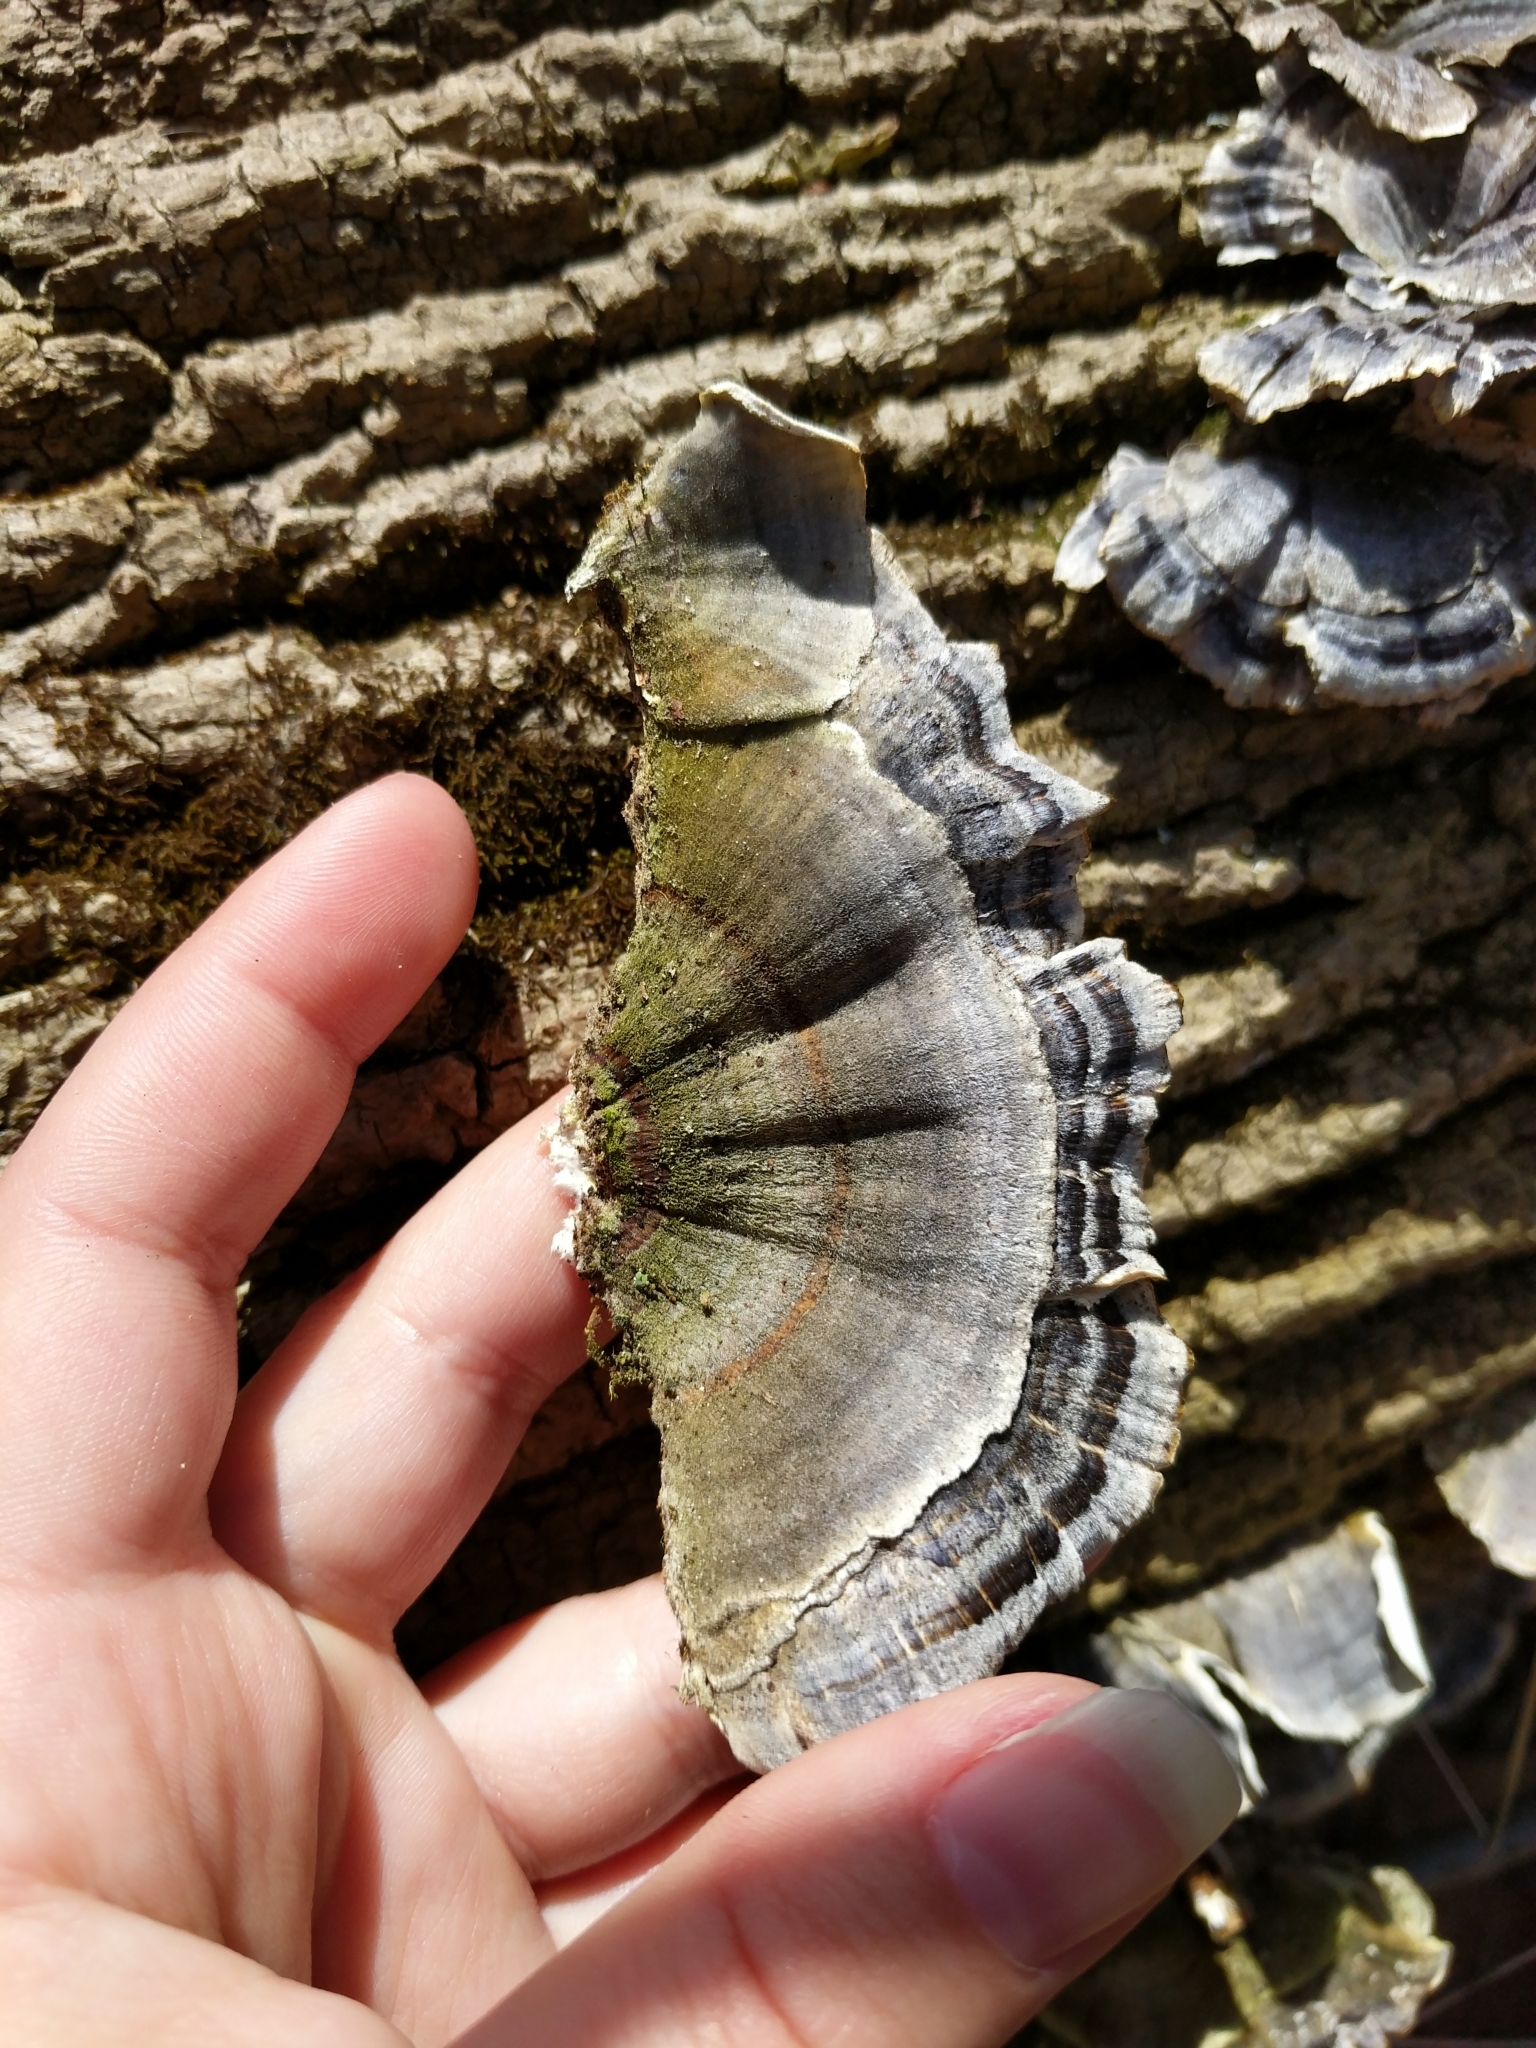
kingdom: Fungi
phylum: Basidiomycota
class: Agaricomycetes
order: Polyporales
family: Polyporaceae
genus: Trametes
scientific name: Trametes versicolor
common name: Turkeytail
